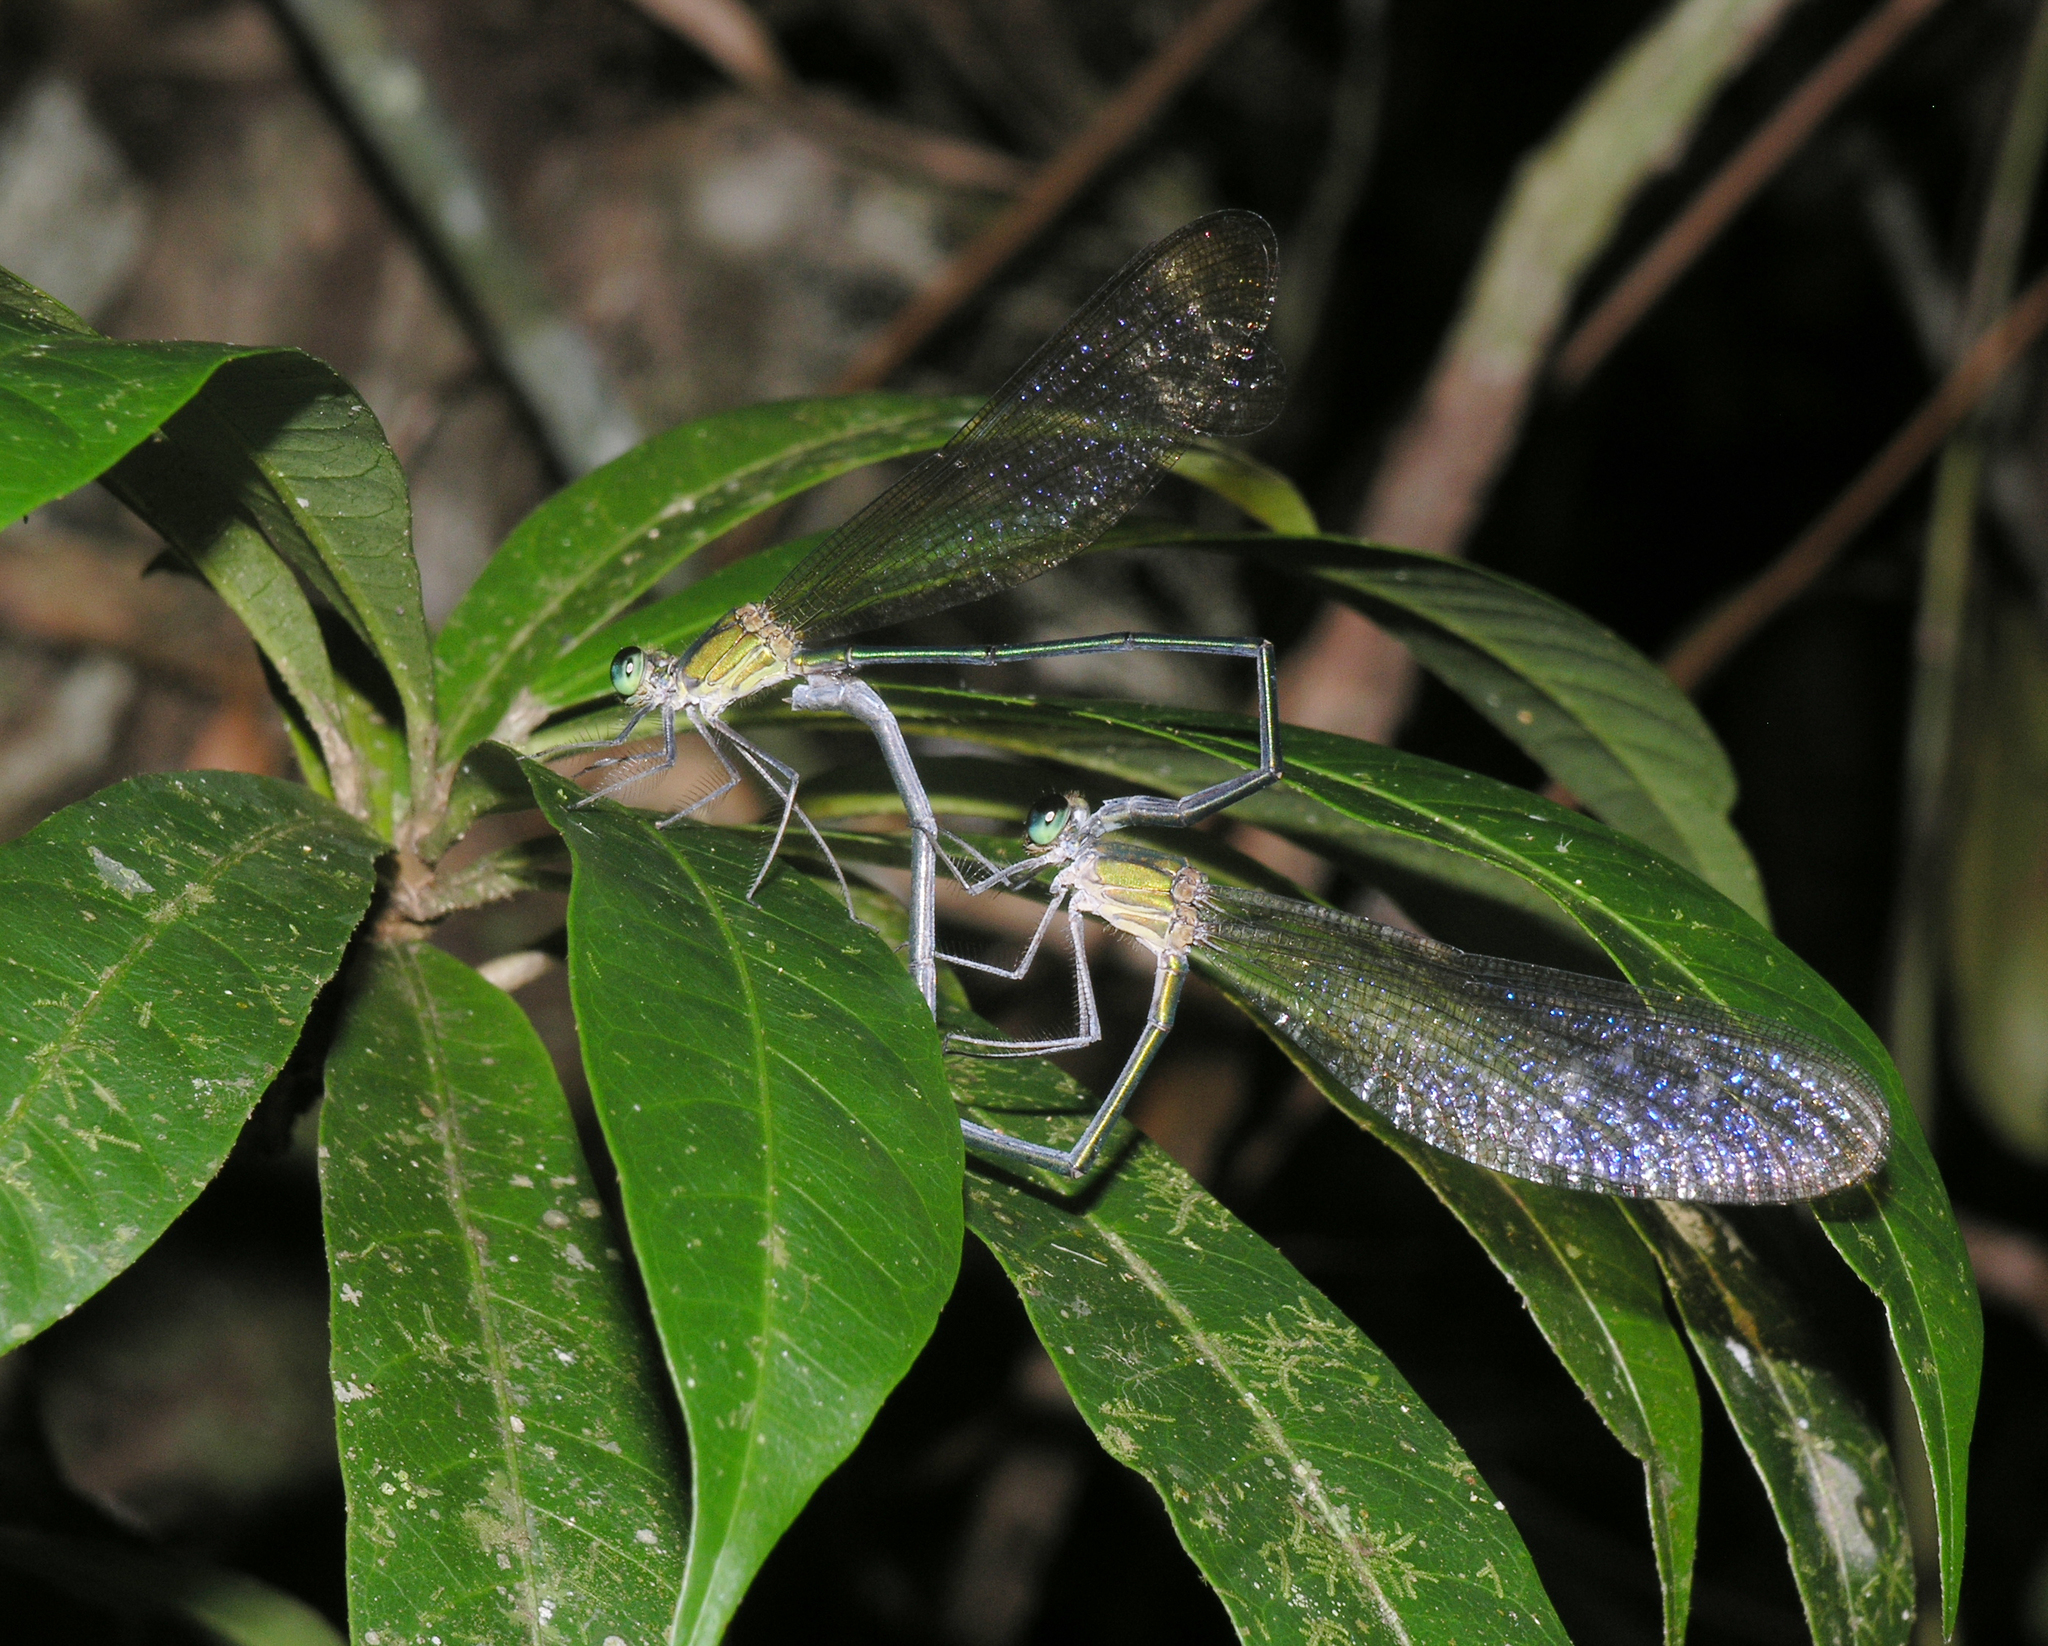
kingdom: Animalia
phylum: Arthropoda
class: Insecta
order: Odonata
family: Calopterygidae
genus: Vestalis
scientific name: Vestalis gracilis
